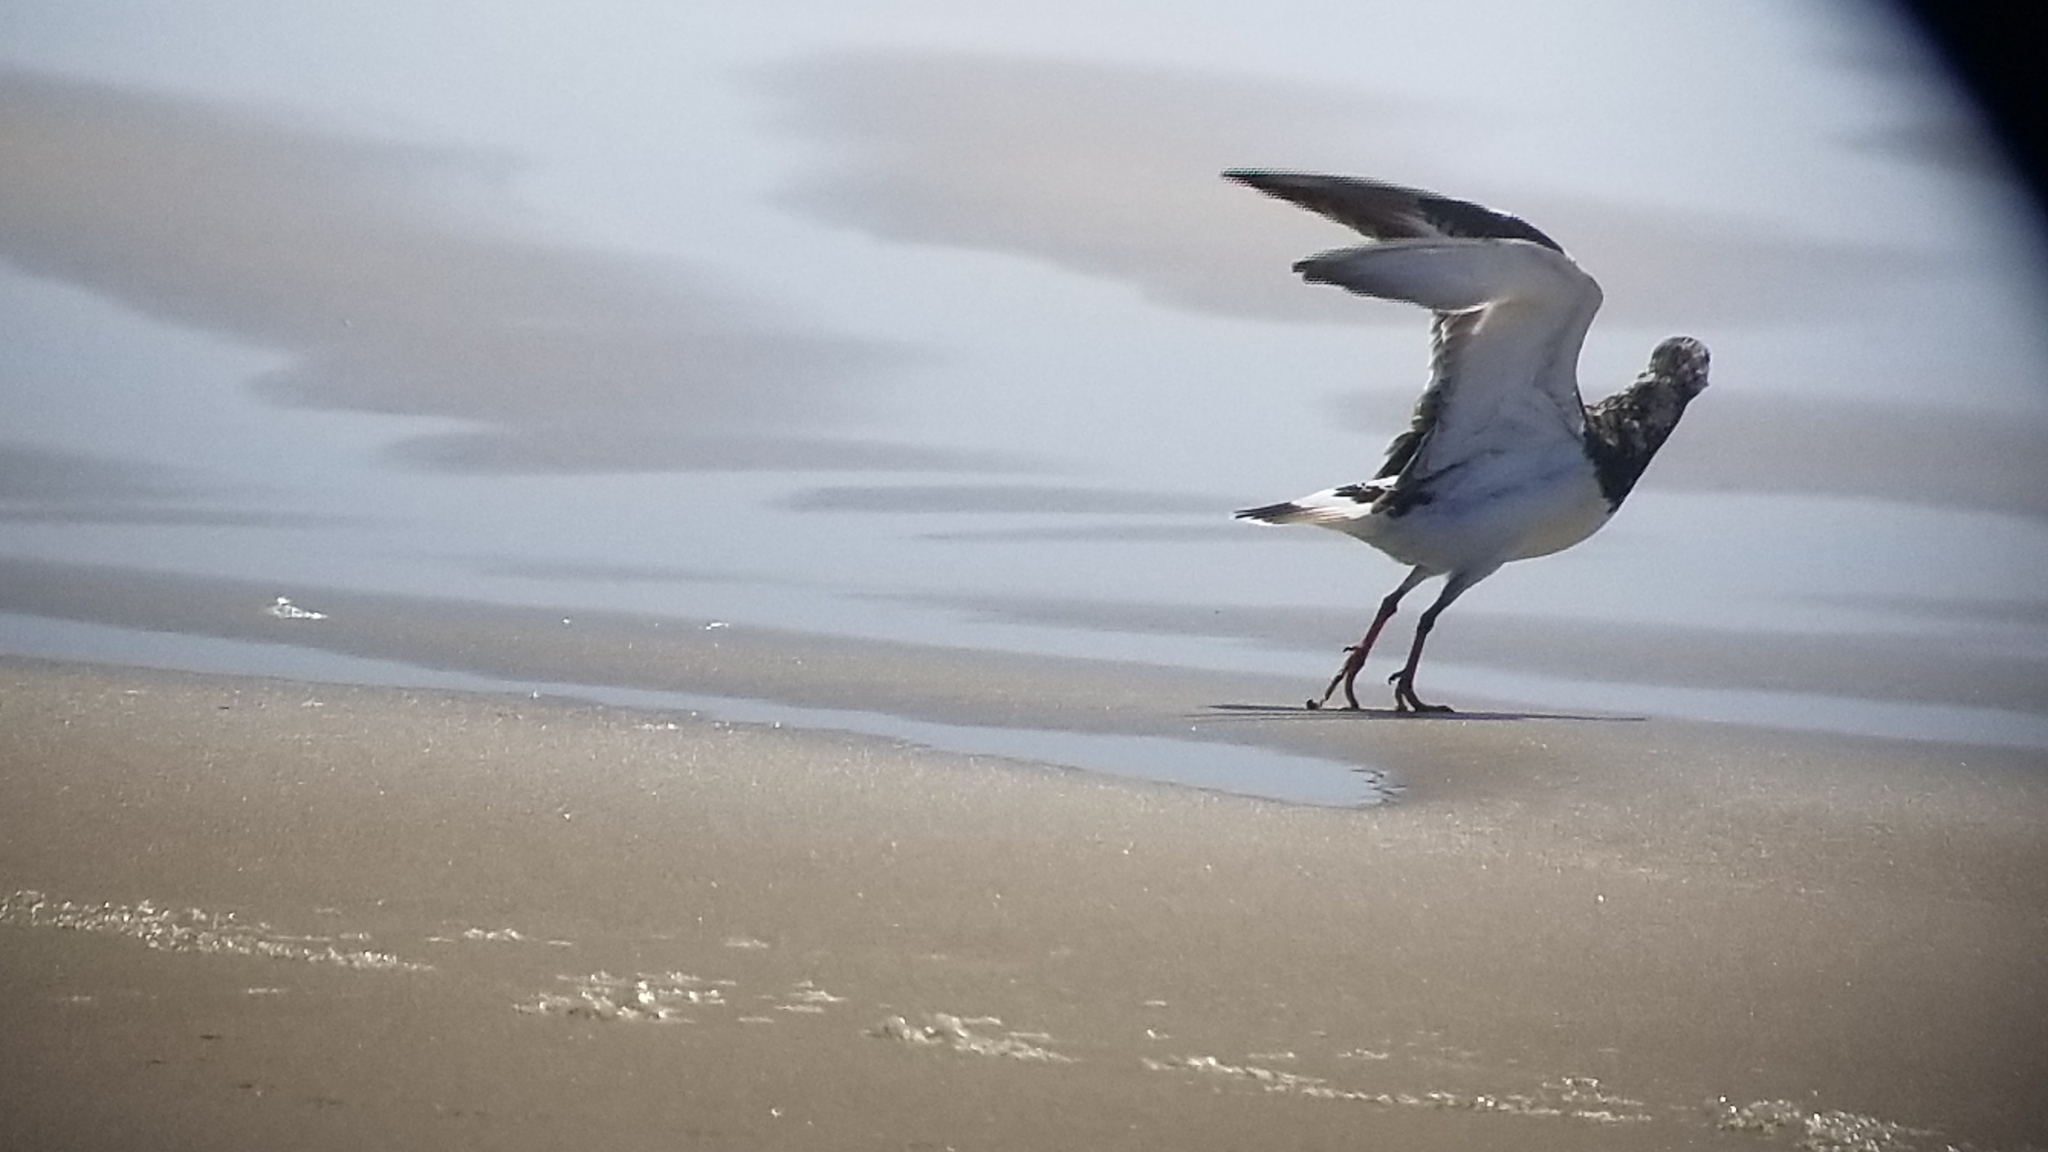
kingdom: Animalia
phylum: Chordata
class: Aves
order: Charadriiformes
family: Scolopacidae
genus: Arenaria
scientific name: Arenaria interpres
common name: Ruddy turnstone
